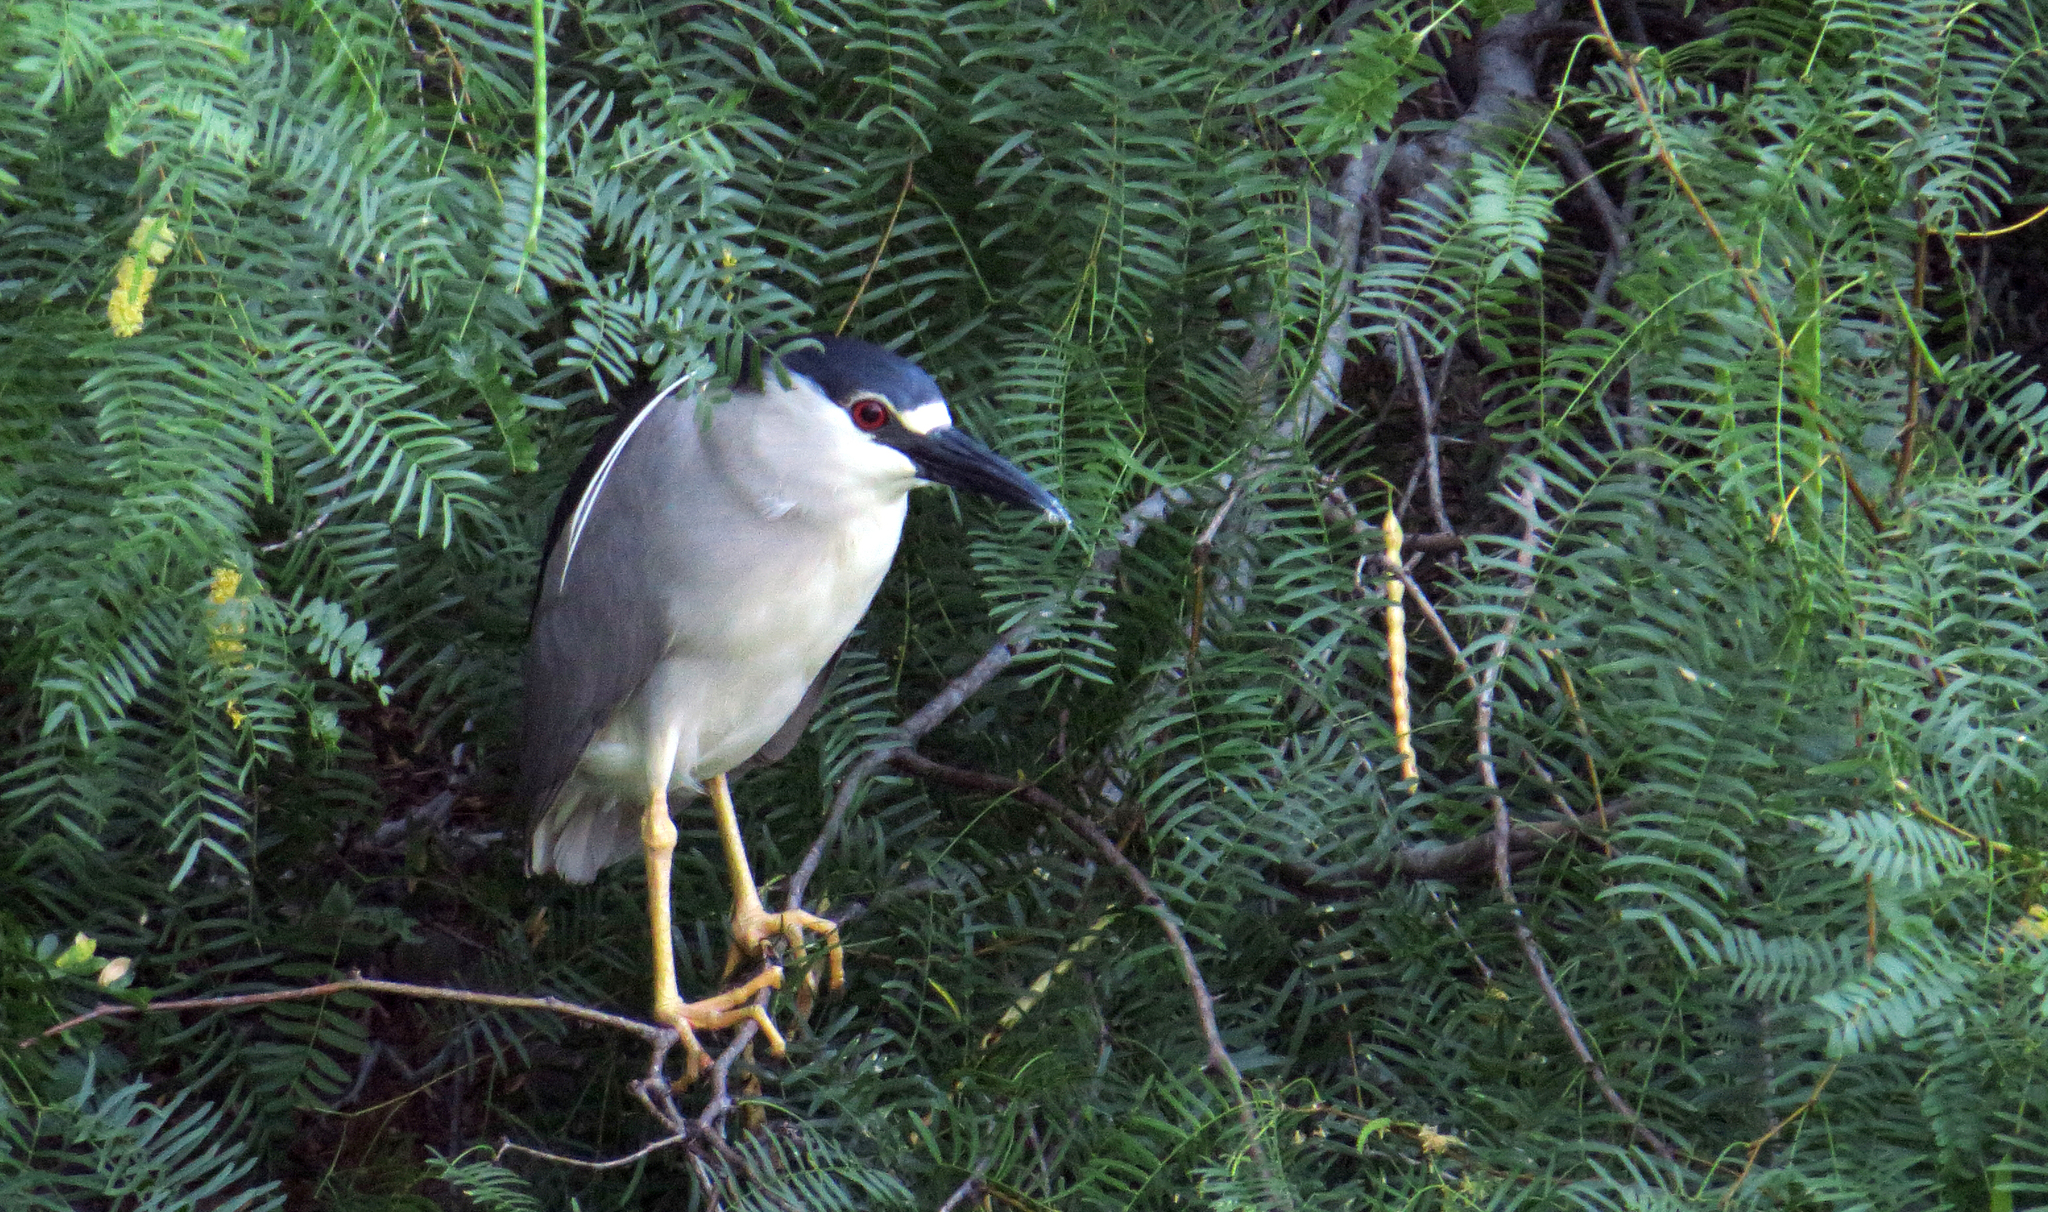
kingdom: Animalia
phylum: Chordata
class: Aves
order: Pelecaniformes
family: Ardeidae
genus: Nycticorax
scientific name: Nycticorax nycticorax
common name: Black-crowned night heron
